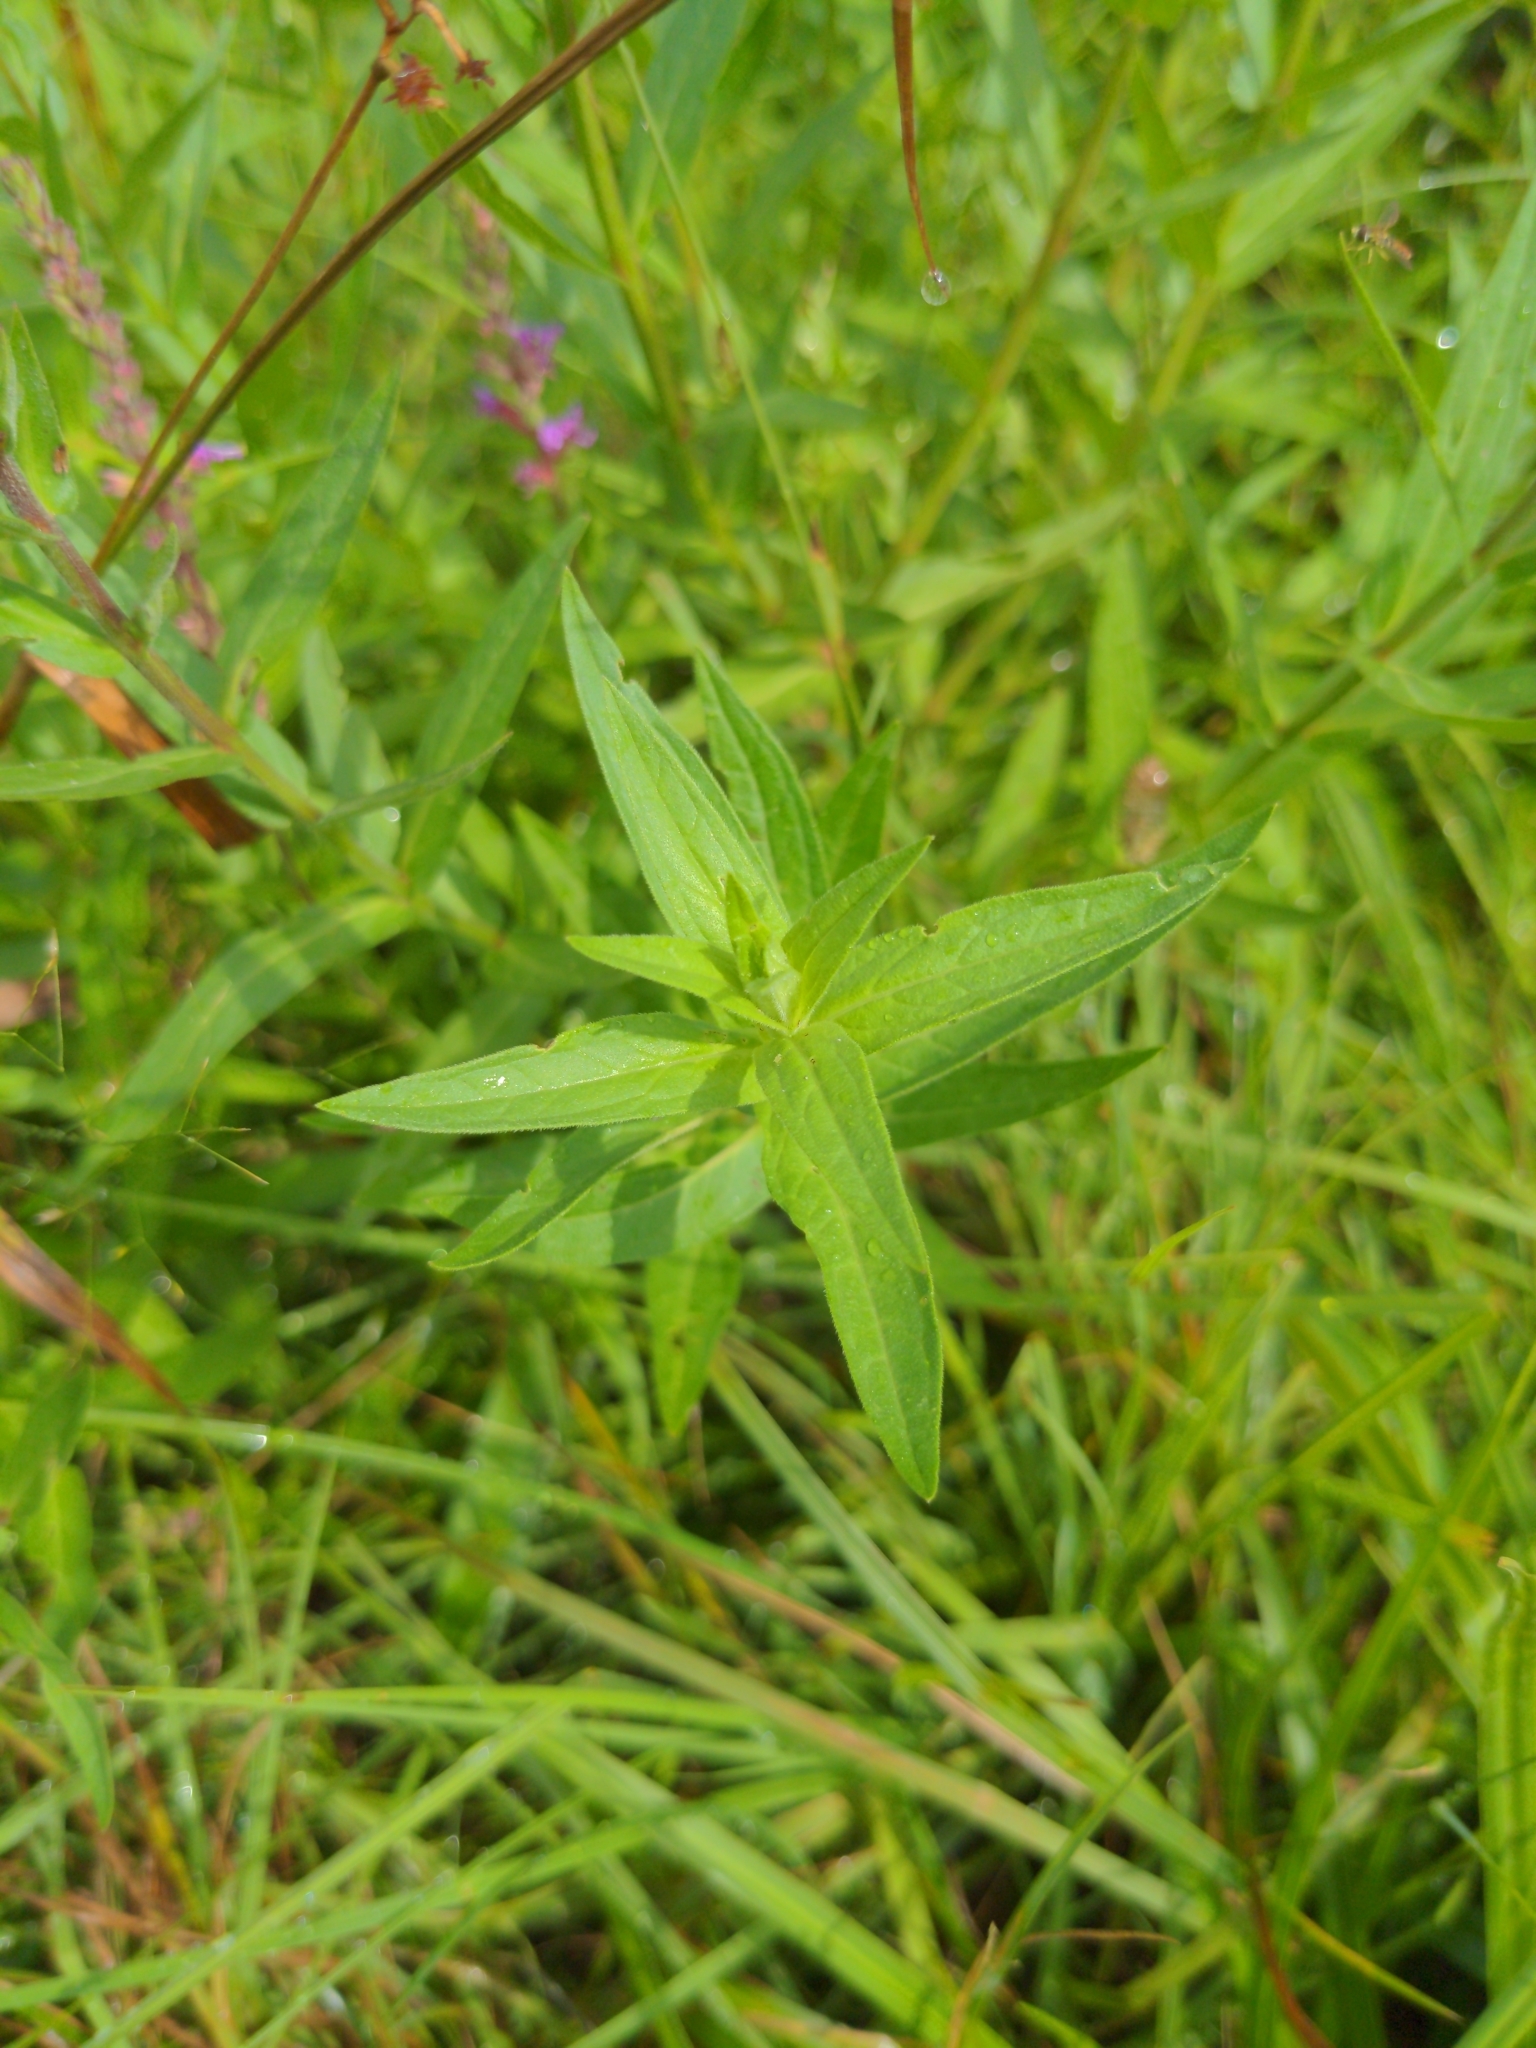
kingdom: Plantae
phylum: Tracheophyta
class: Magnoliopsida
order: Myrtales
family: Lythraceae
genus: Lythrum
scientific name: Lythrum salicaria
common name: Purple loosestrife
